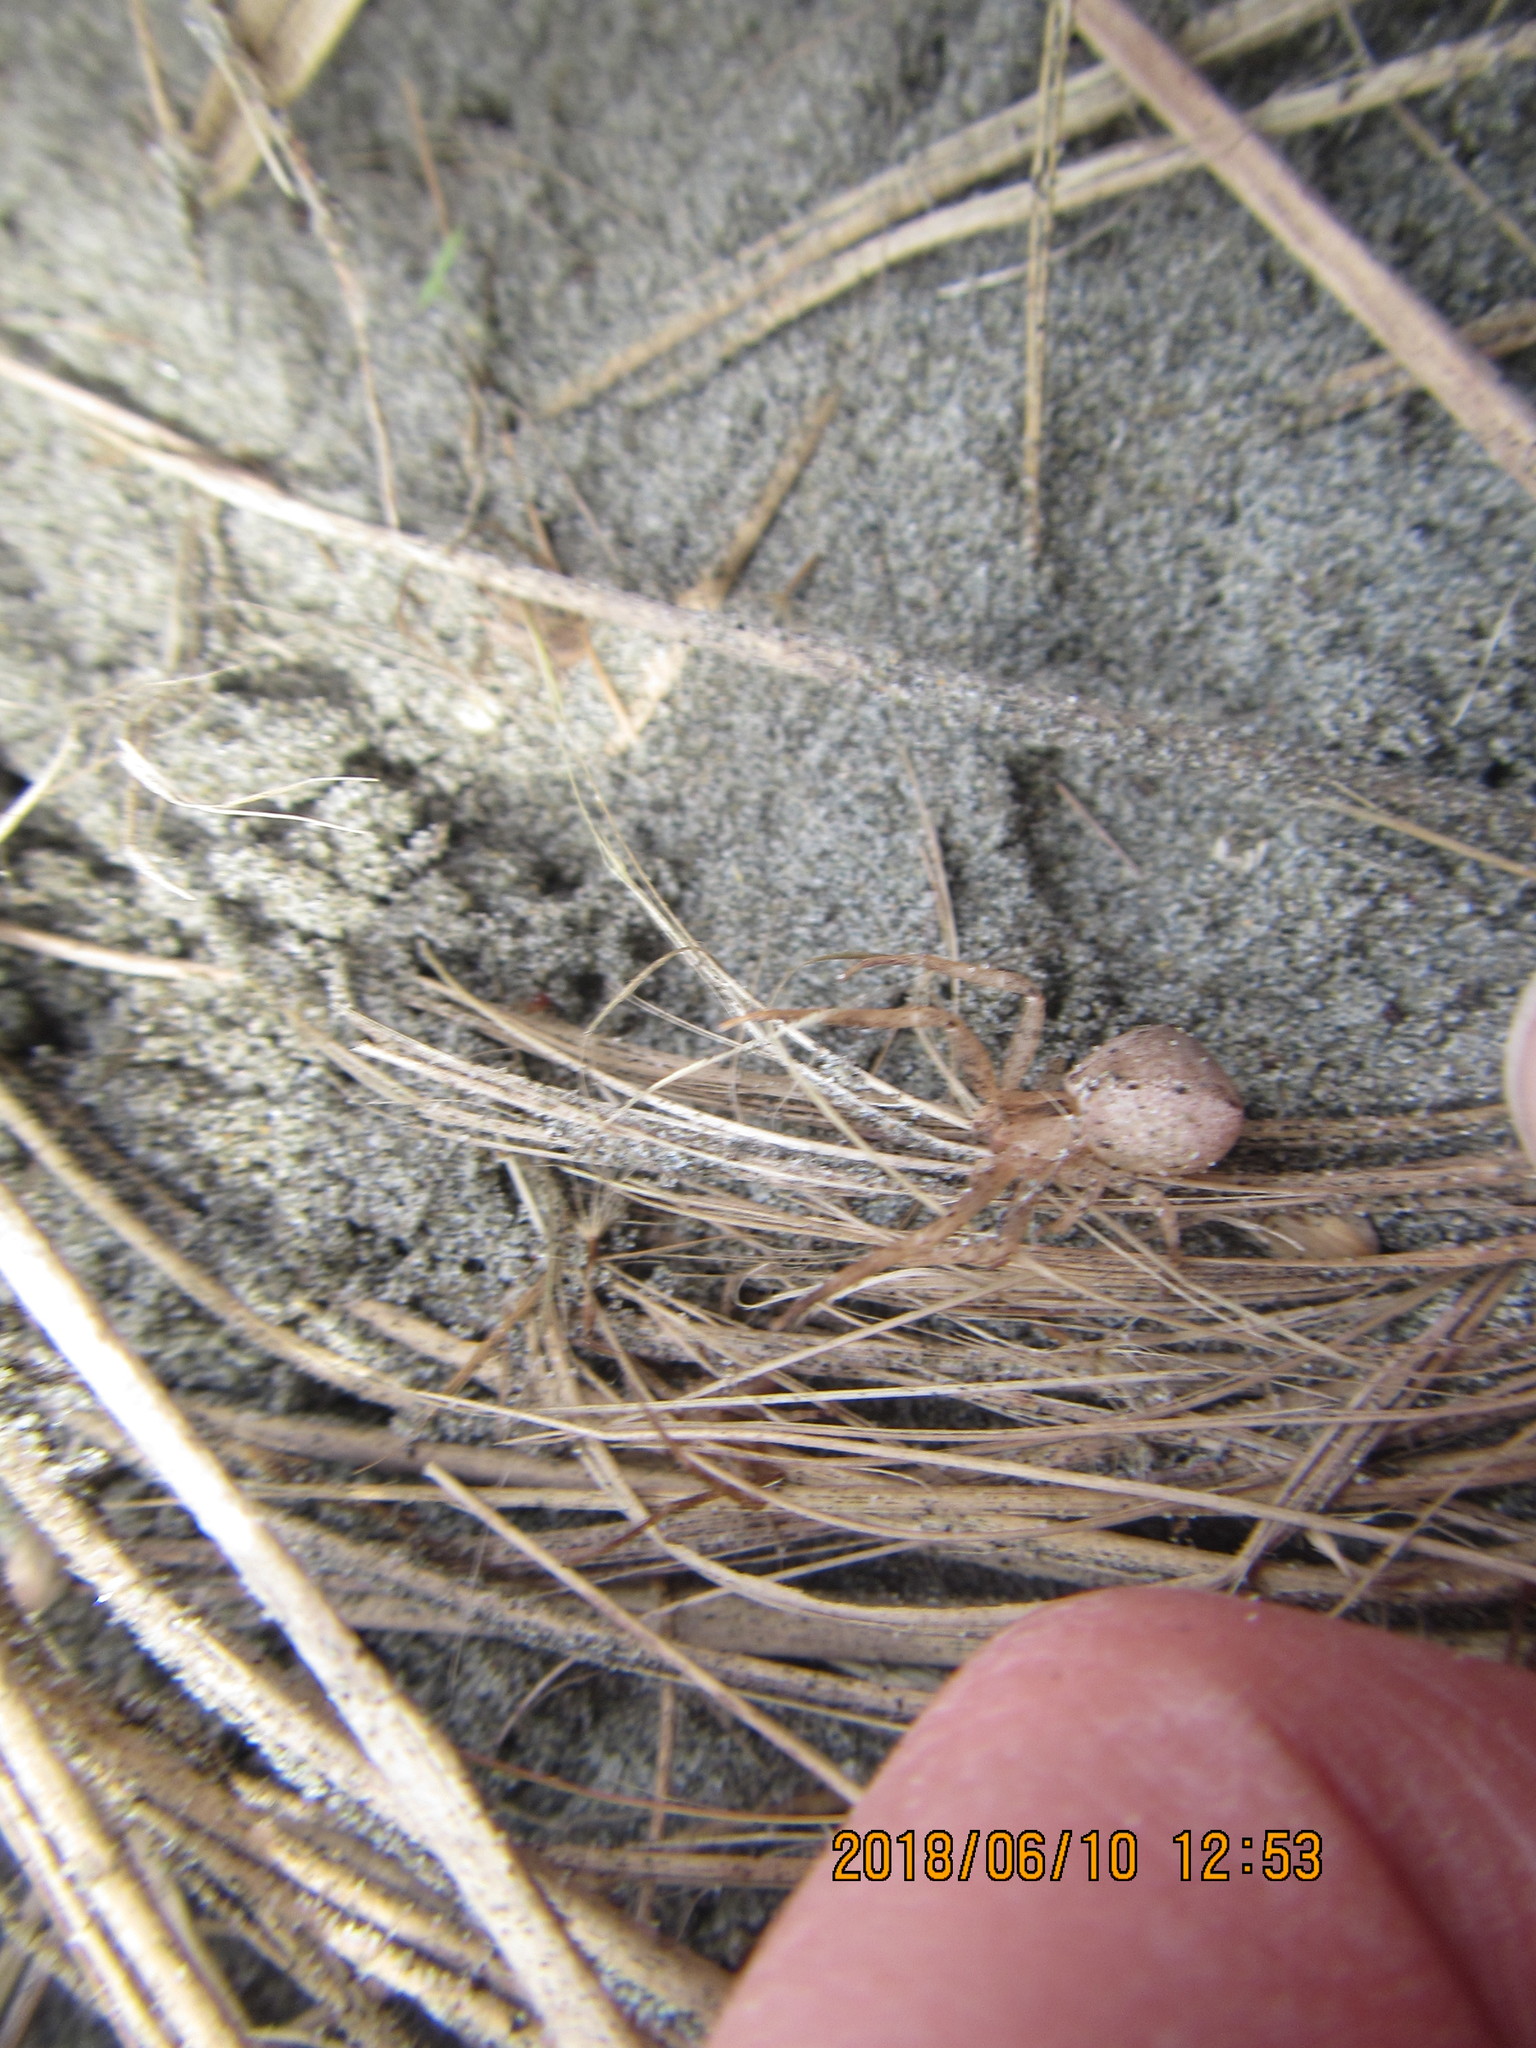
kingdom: Animalia
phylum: Arthropoda
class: Arachnida
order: Araneae
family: Thomisidae
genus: Sidymella
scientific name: Sidymella trapezia
